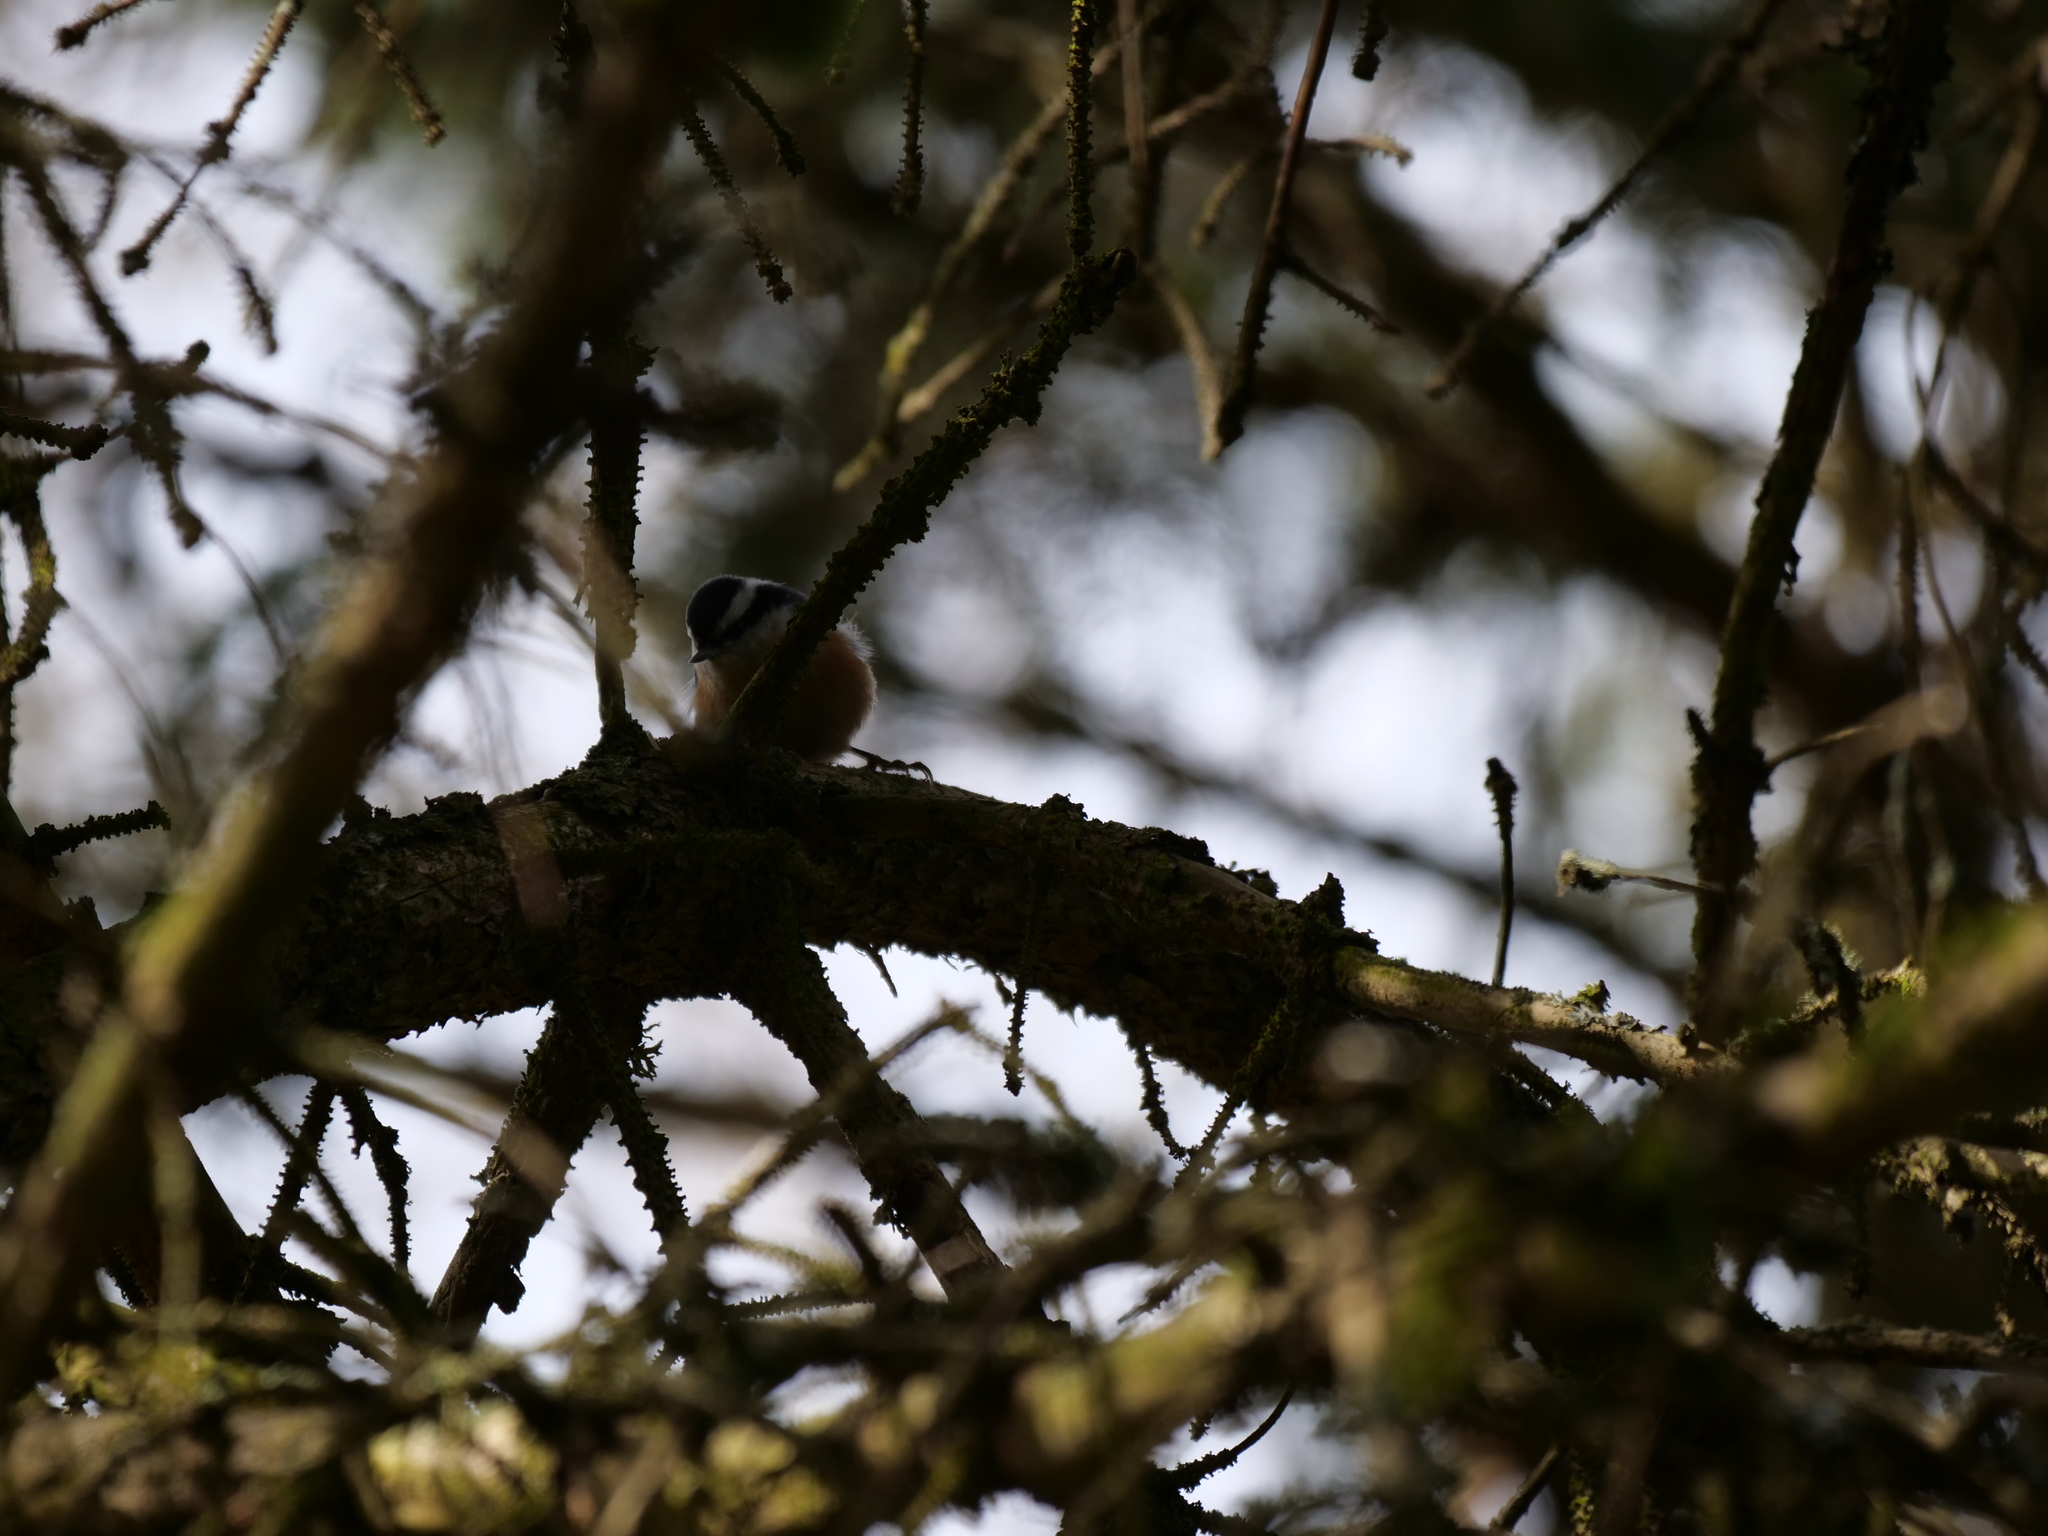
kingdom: Animalia
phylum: Chordata
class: Aves
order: Passeriformes
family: Sittidae
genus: Sitta
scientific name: Sitta canadensis
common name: Red-breasted nuthatch
